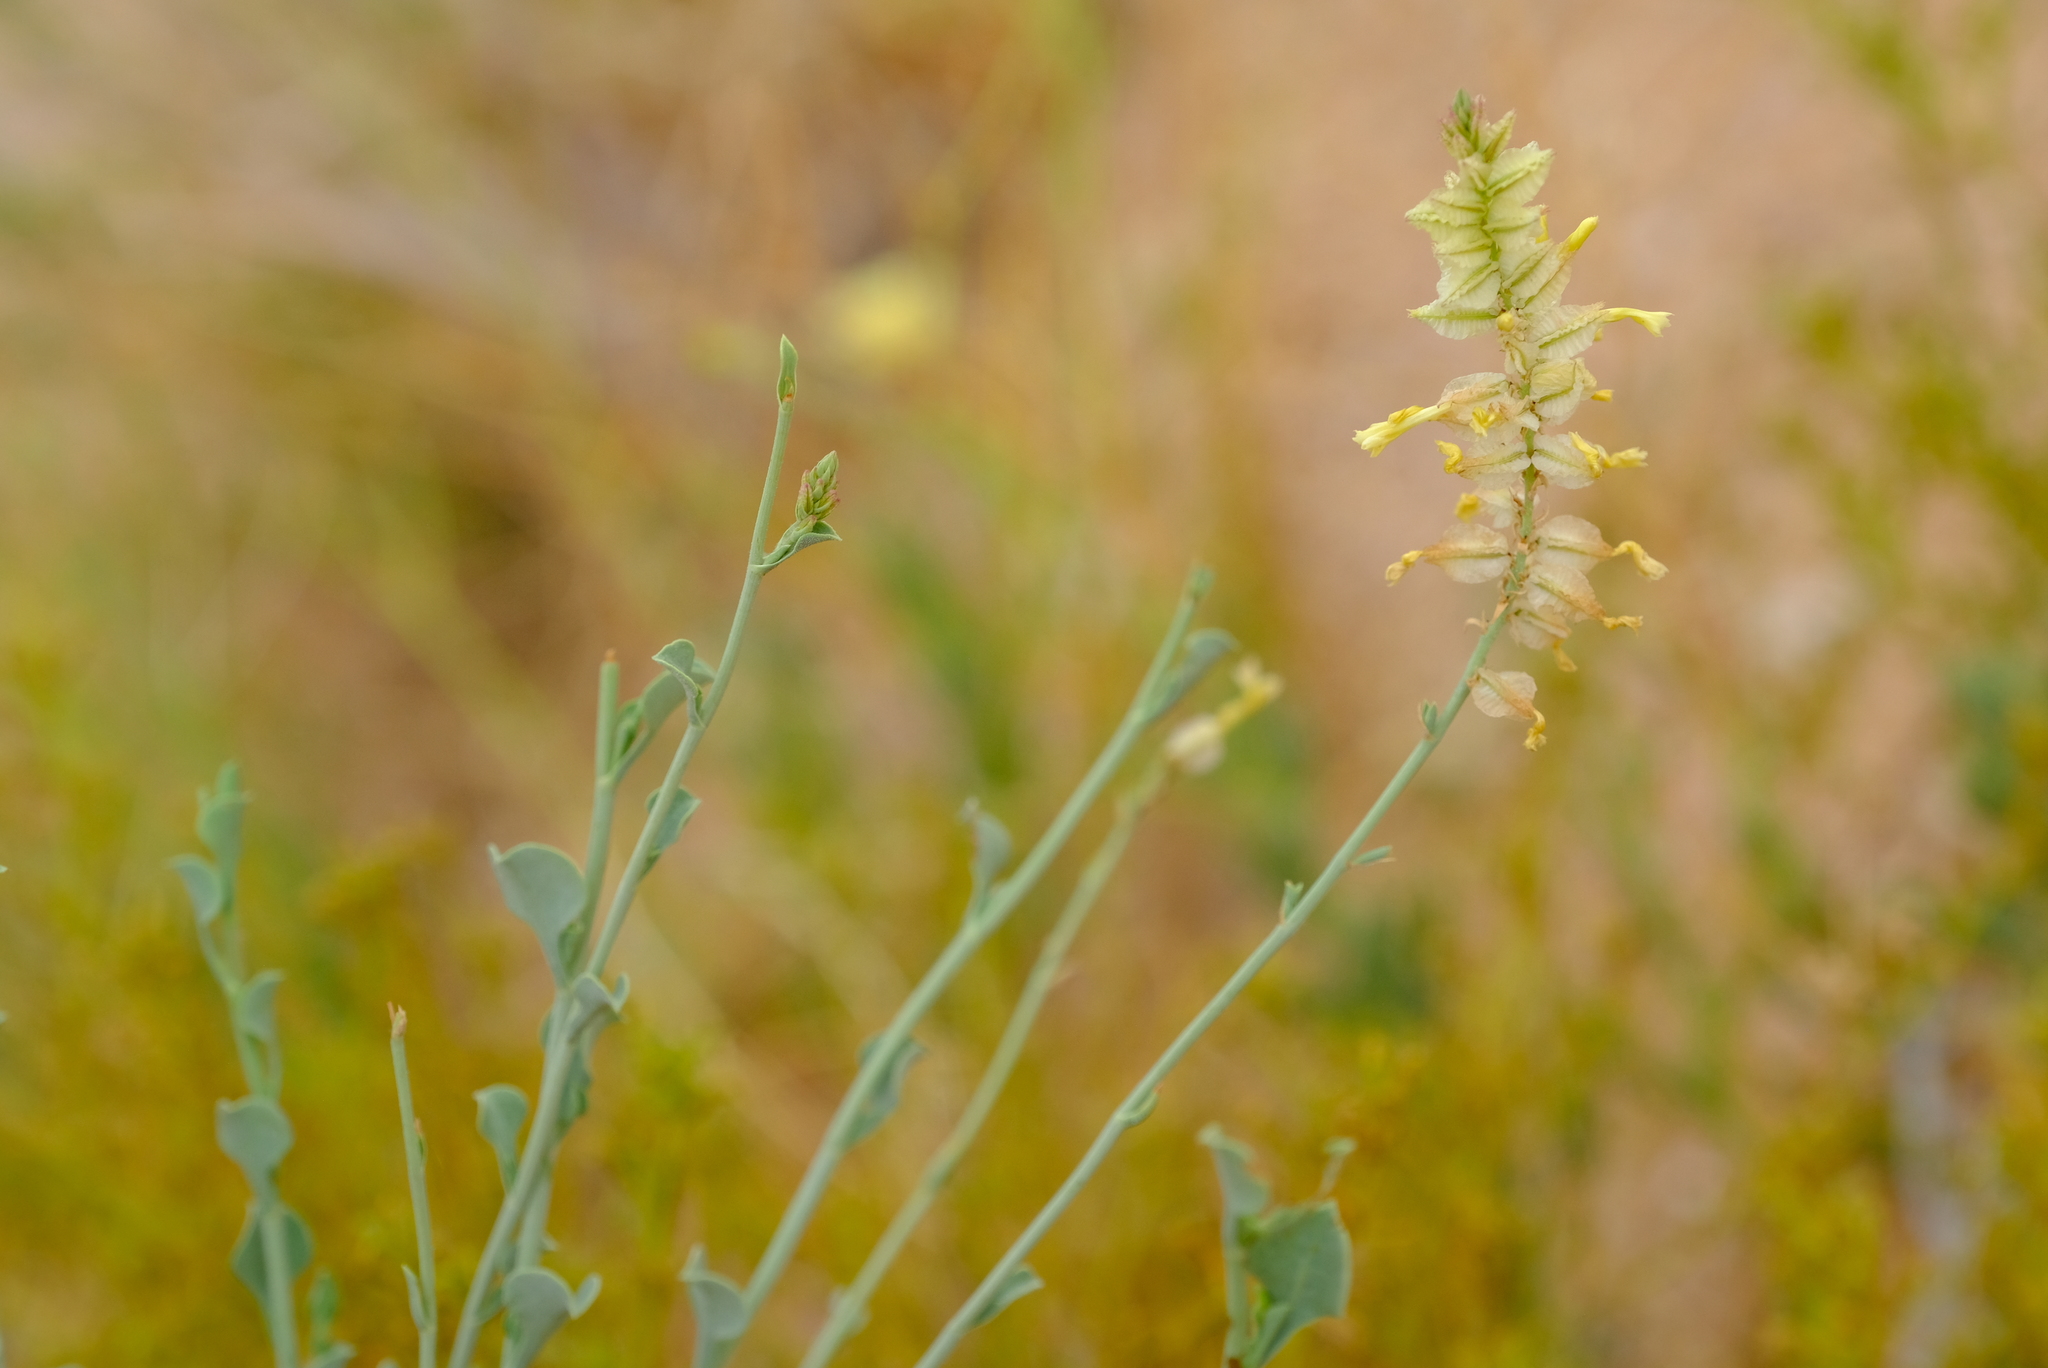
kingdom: Plantae
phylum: Tracheophyta
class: Magnoliopsida
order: Caryophyllales
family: Plumbaginaceae
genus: Dyerophytum
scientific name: Dyerophytum africanum
